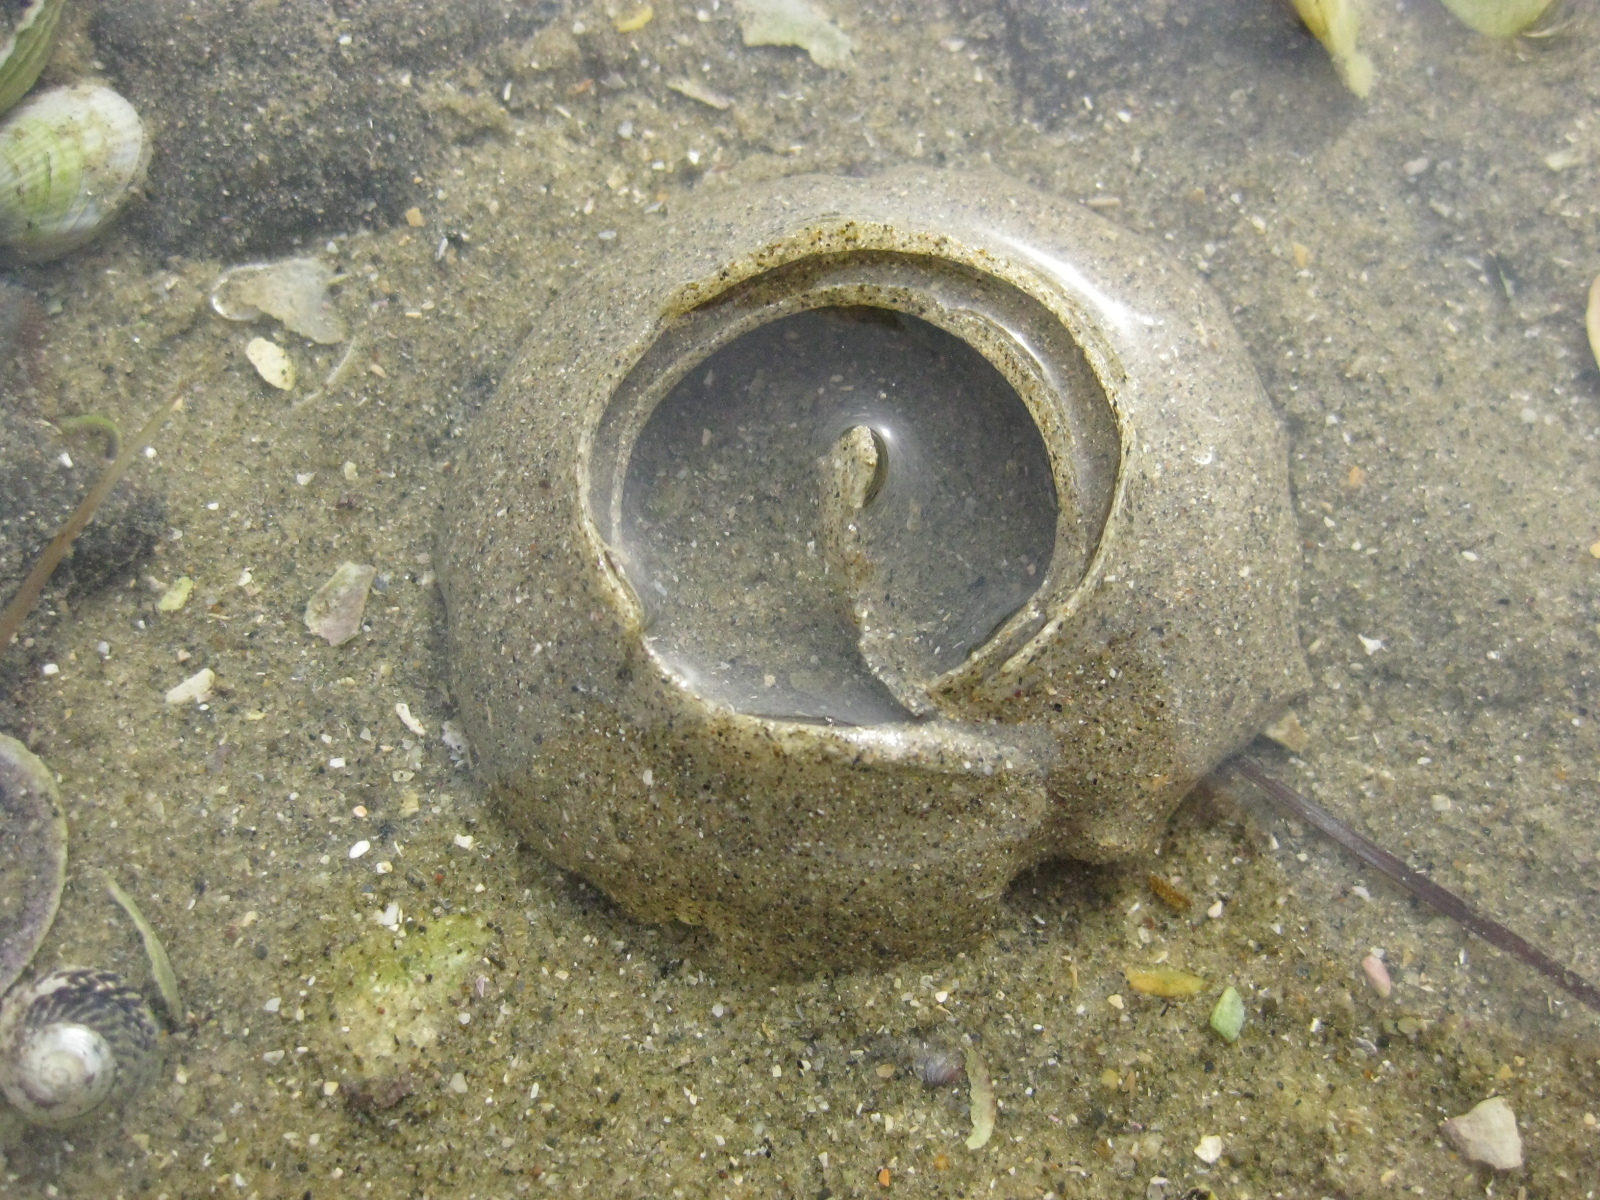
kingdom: Animalia
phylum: Mollusca
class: Gastropoda
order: Littorinimorpha
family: Naticidae
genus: Notocochlis
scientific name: Notocochlis gualteriana
